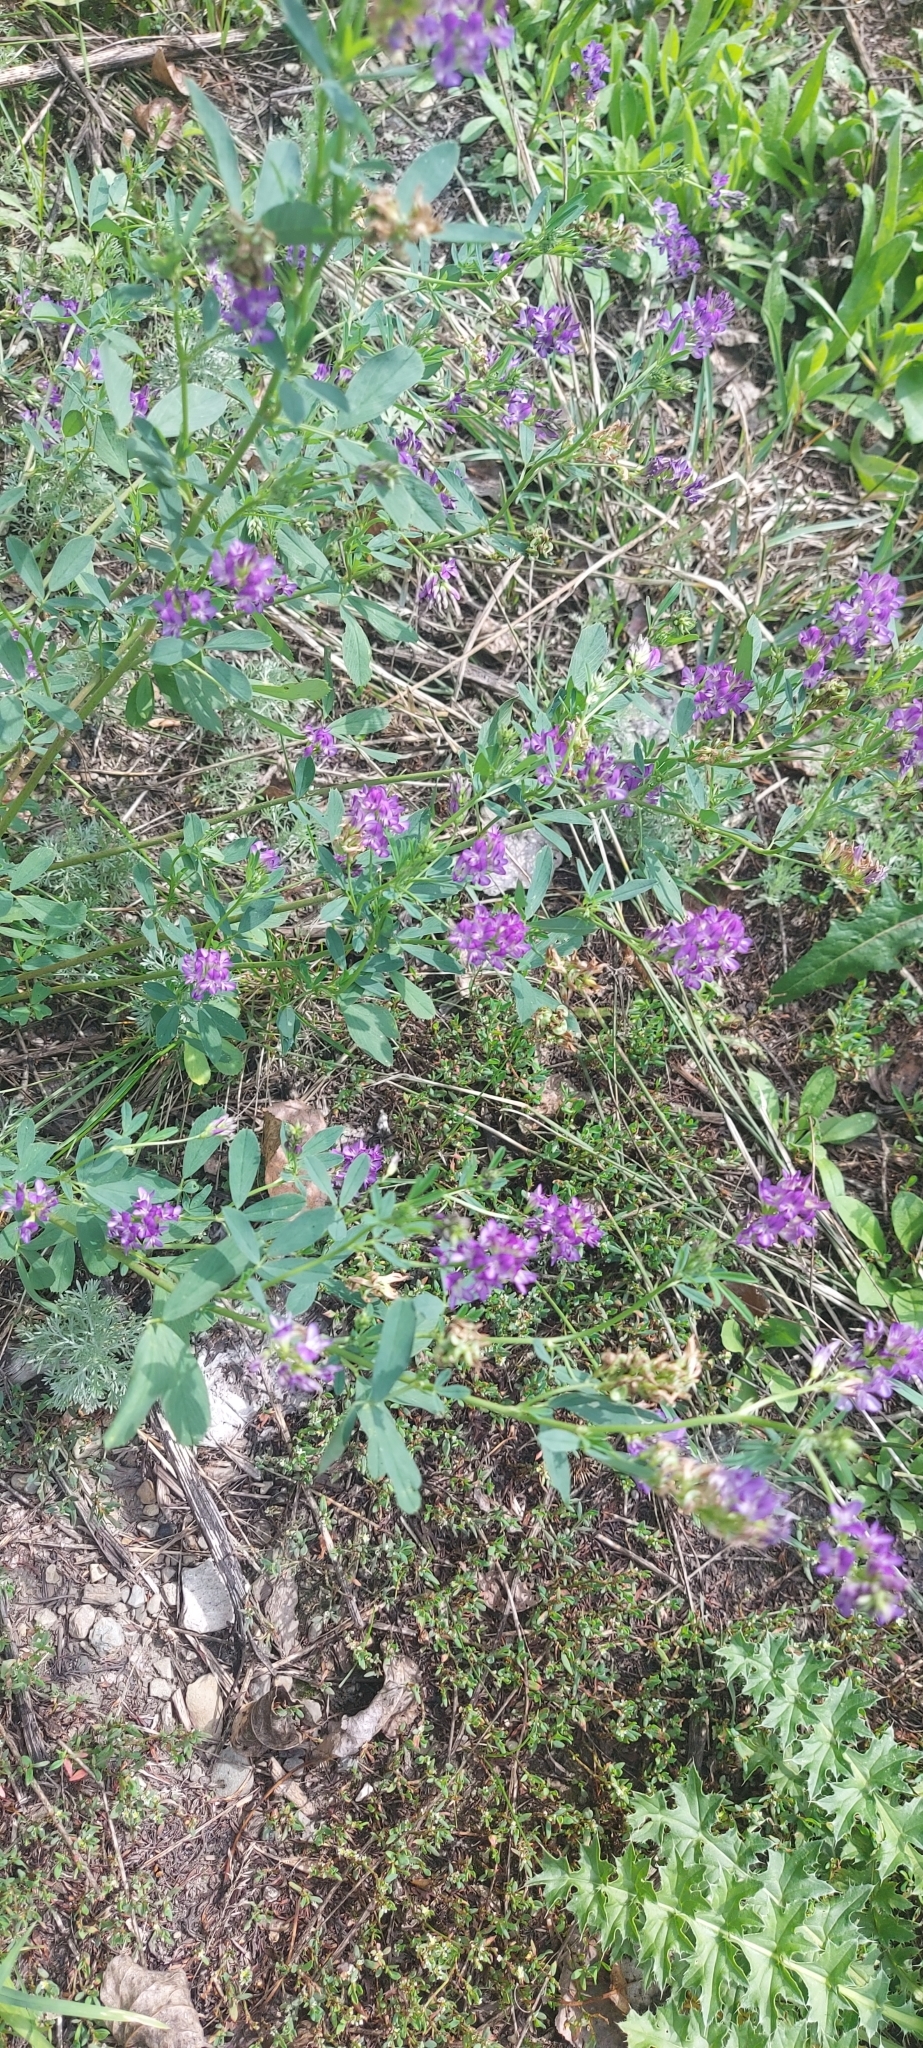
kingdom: Plantae
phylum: Tracheophyta
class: Magnoliopsida
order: Fabales
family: Fabaceae
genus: Medicago
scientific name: Medicago sativa
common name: Alfalfa
